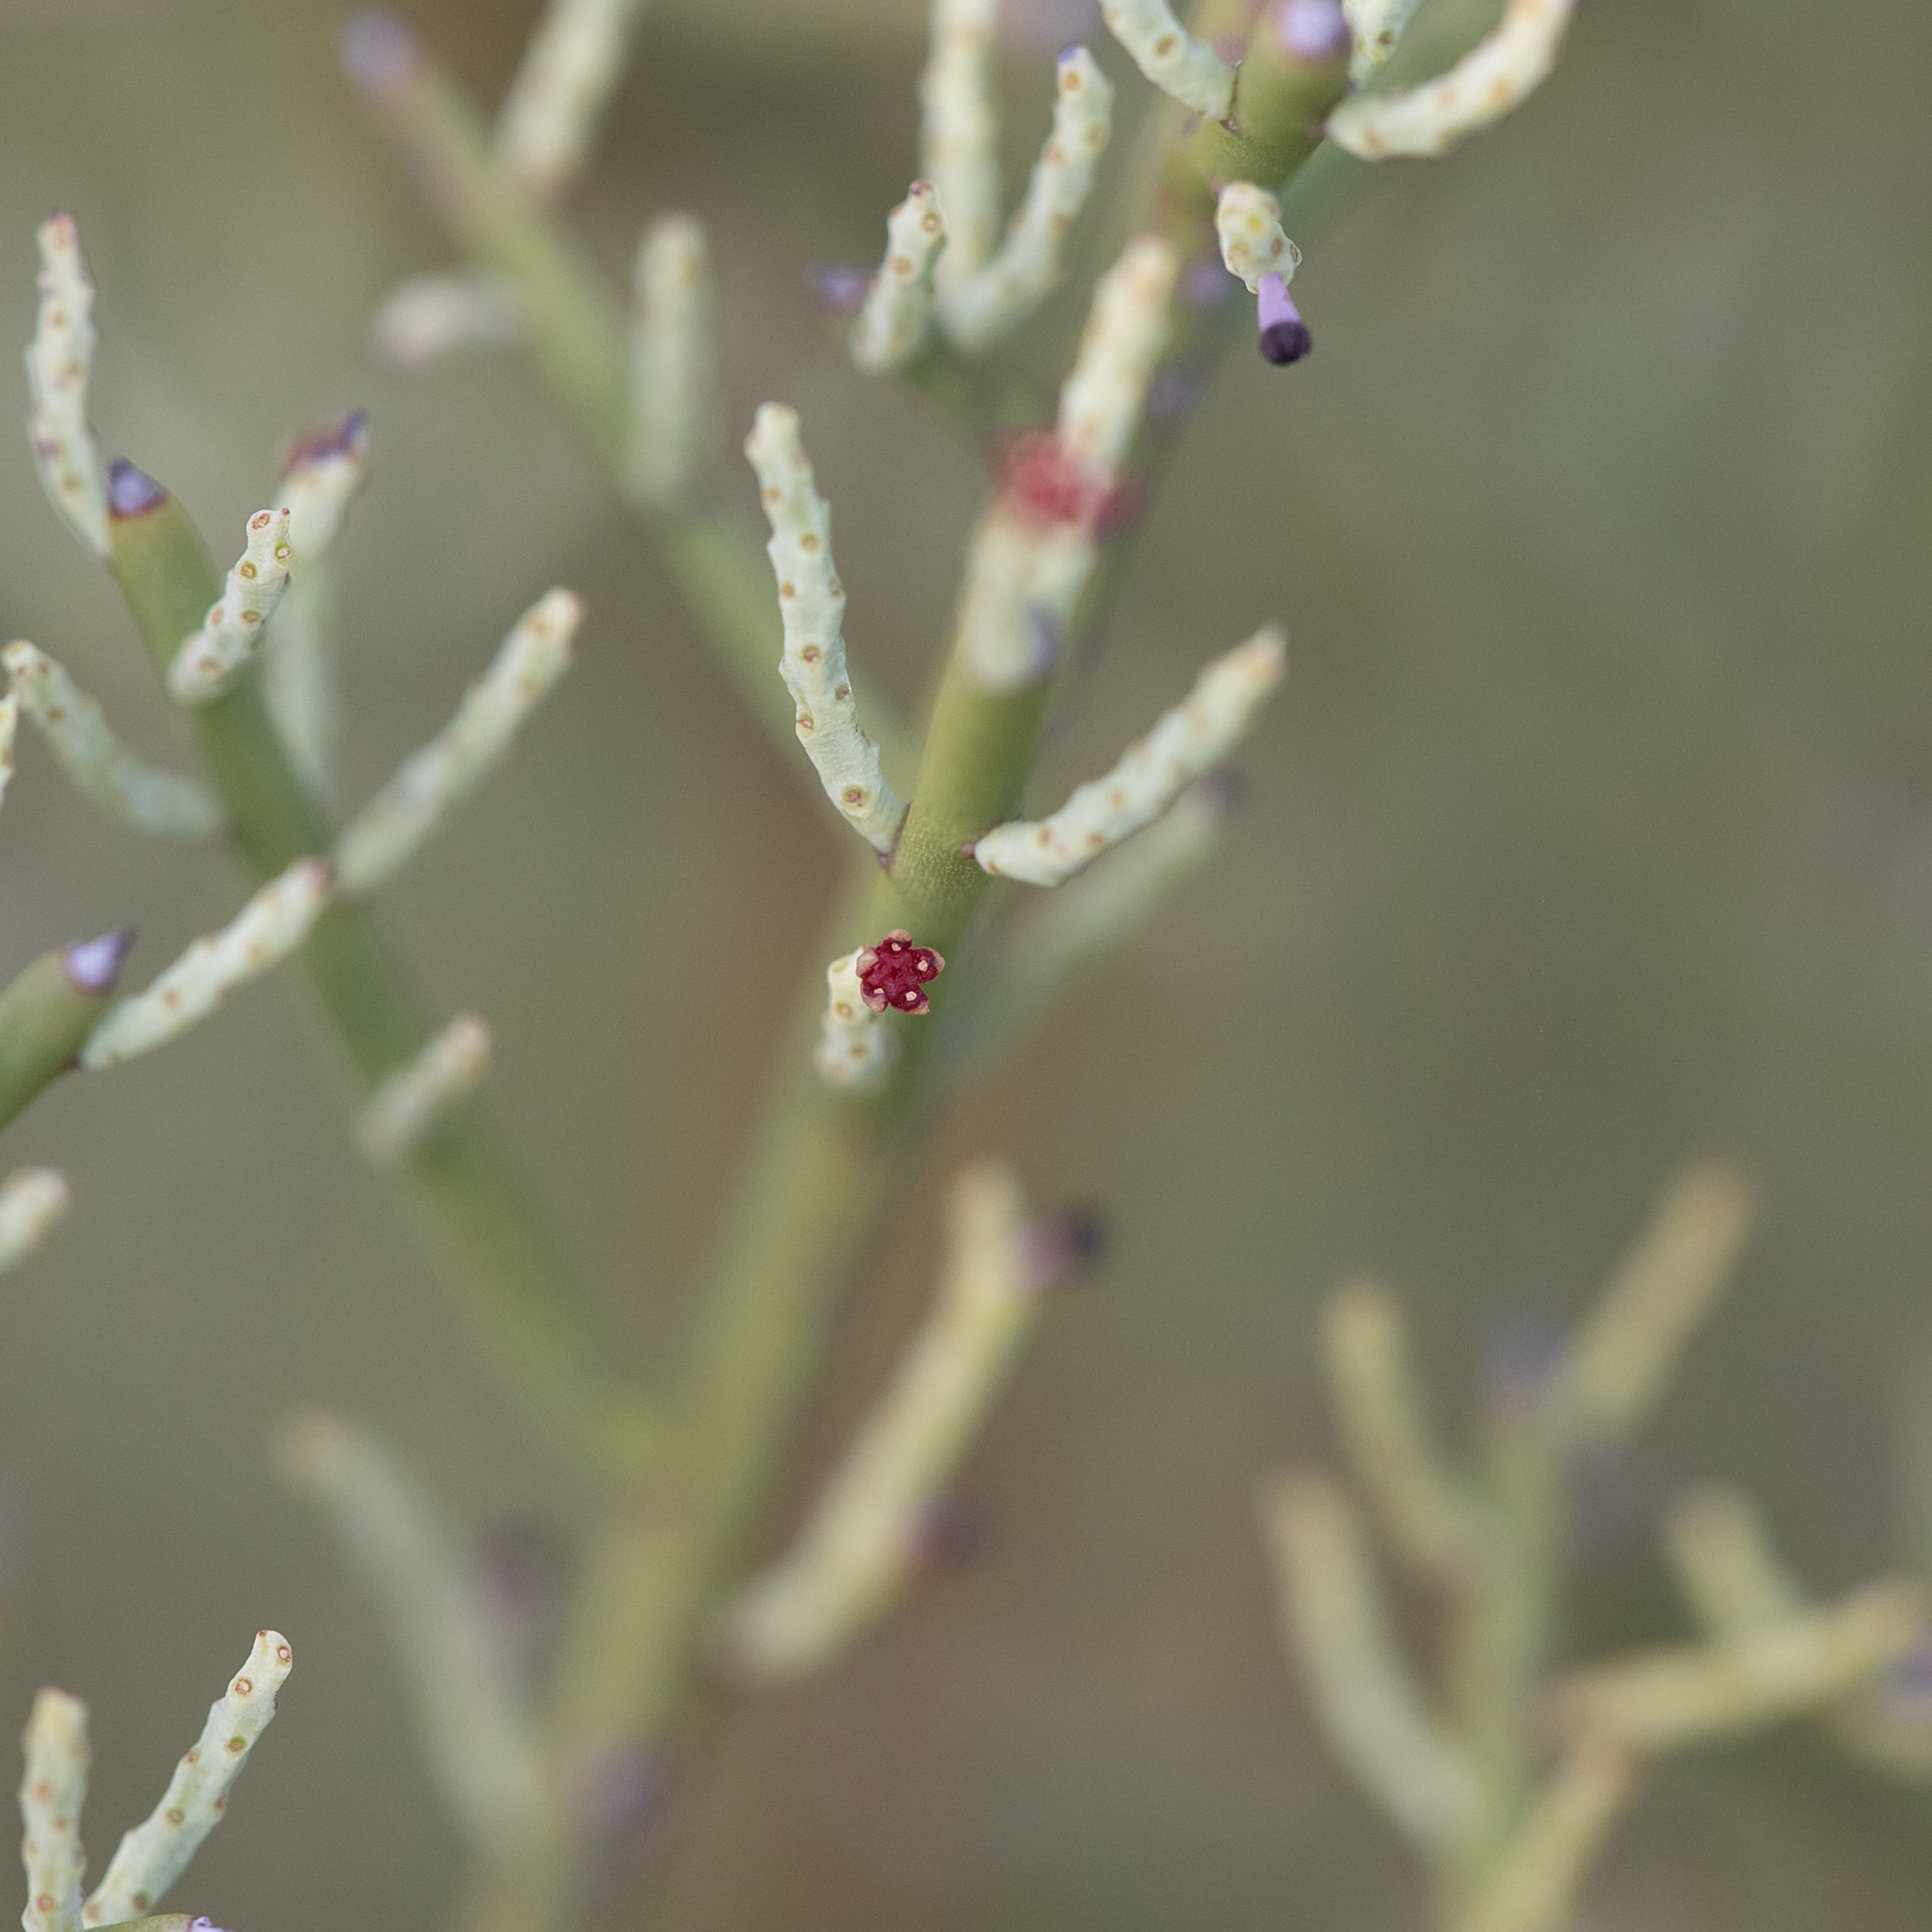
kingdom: Plantae
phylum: Tracheophyta
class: Magnoliopsida
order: Santalales
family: Amphorogynaceae
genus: Leptomeria
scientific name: Leptomeria aphylla
